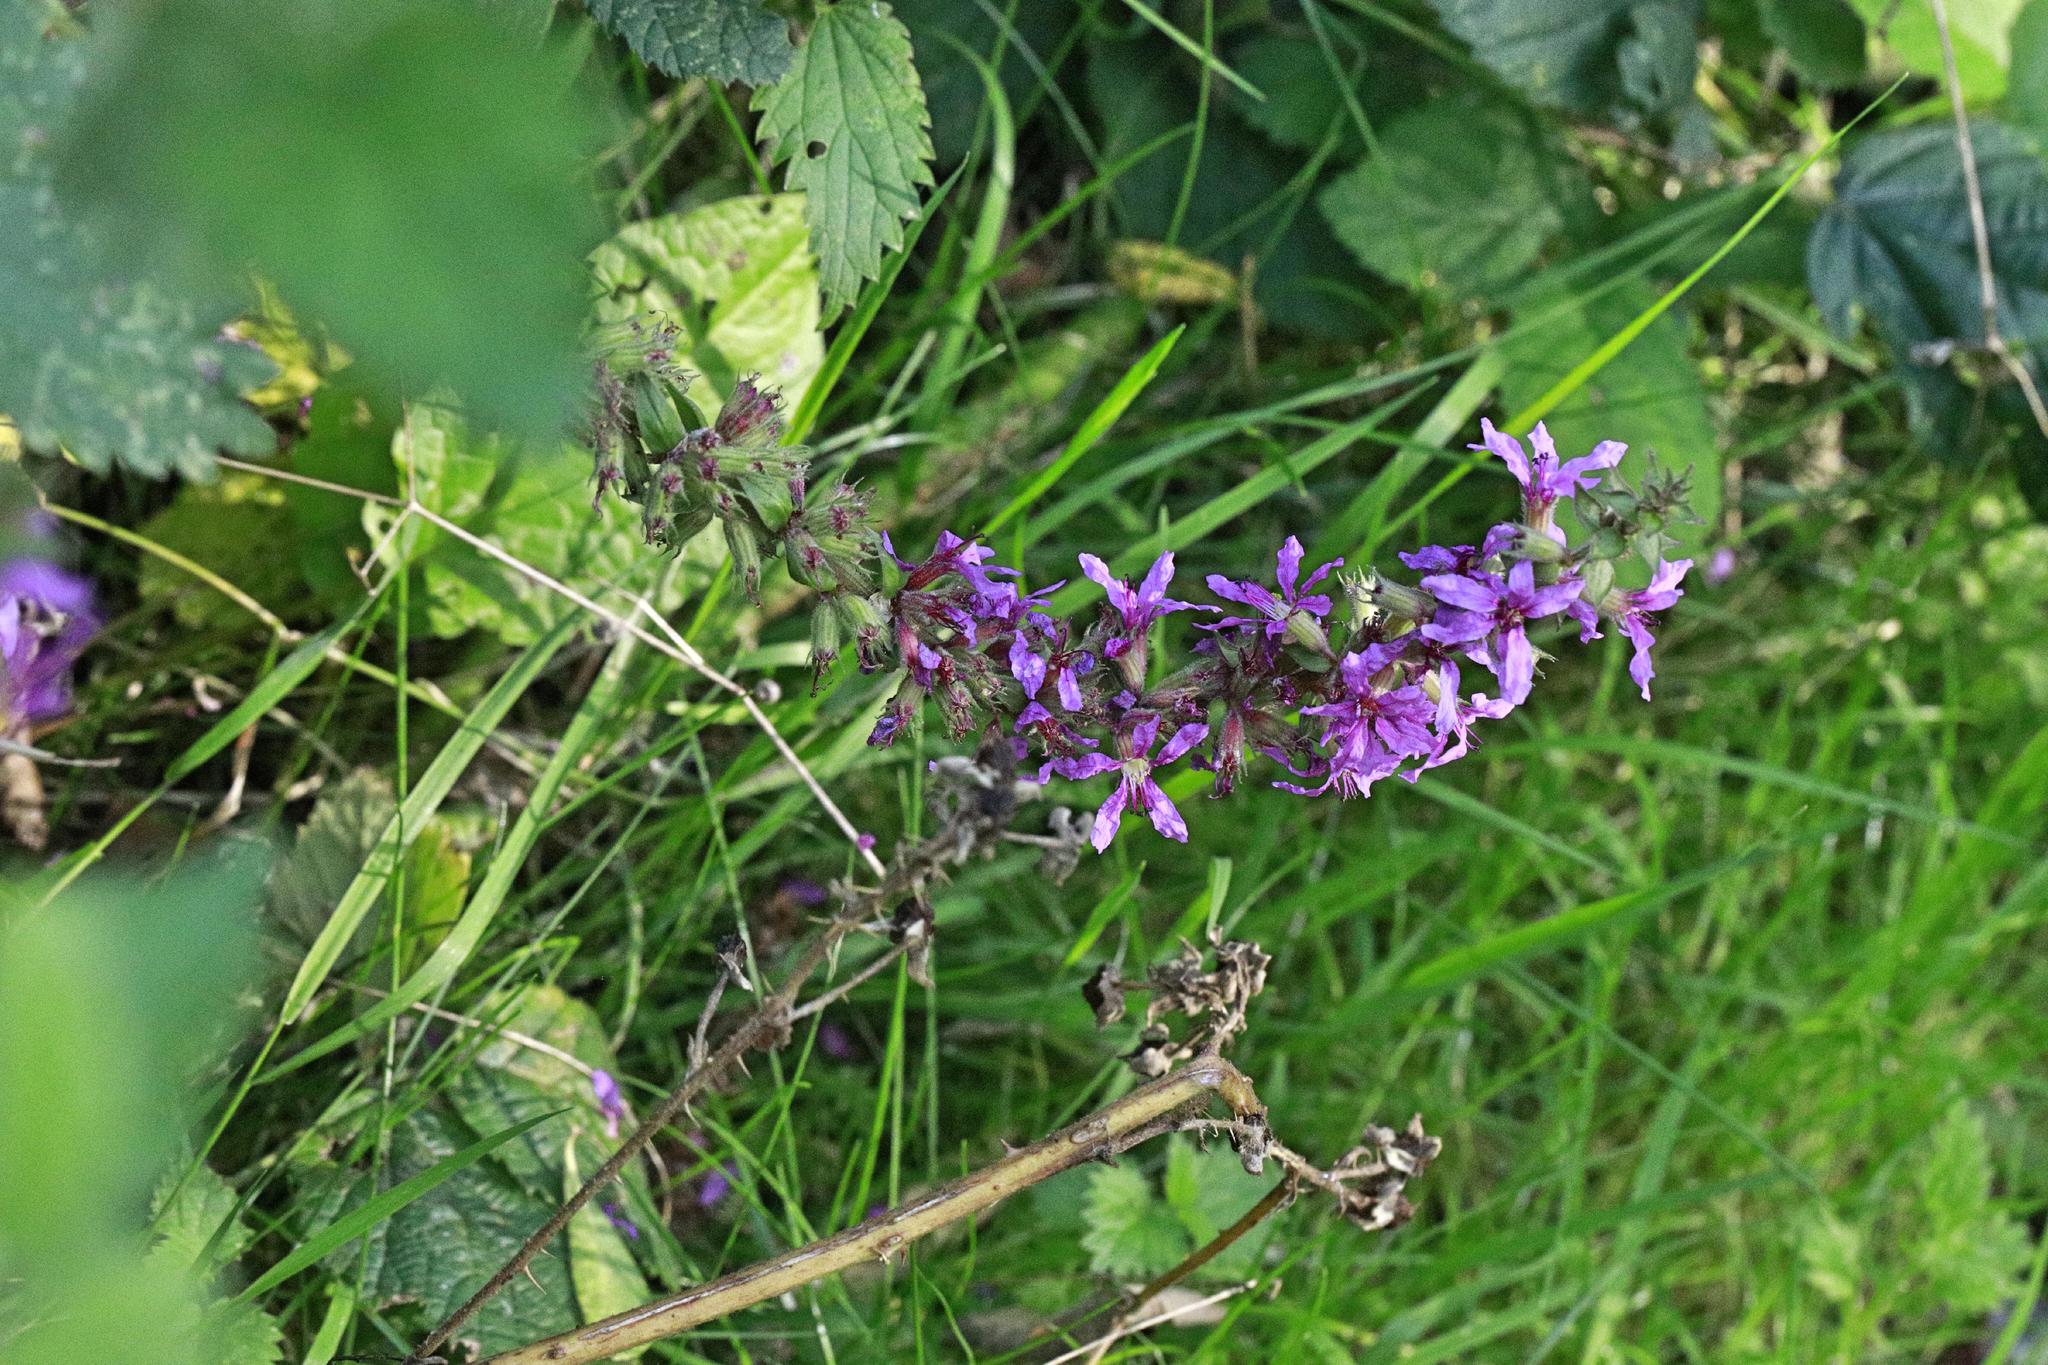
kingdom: Plantae
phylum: Tracheophyta
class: Magnoliopsida
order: Myrtales
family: Lythraceae
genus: Lythrum
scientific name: Lythrum salicaria
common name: Purple loosestrife
